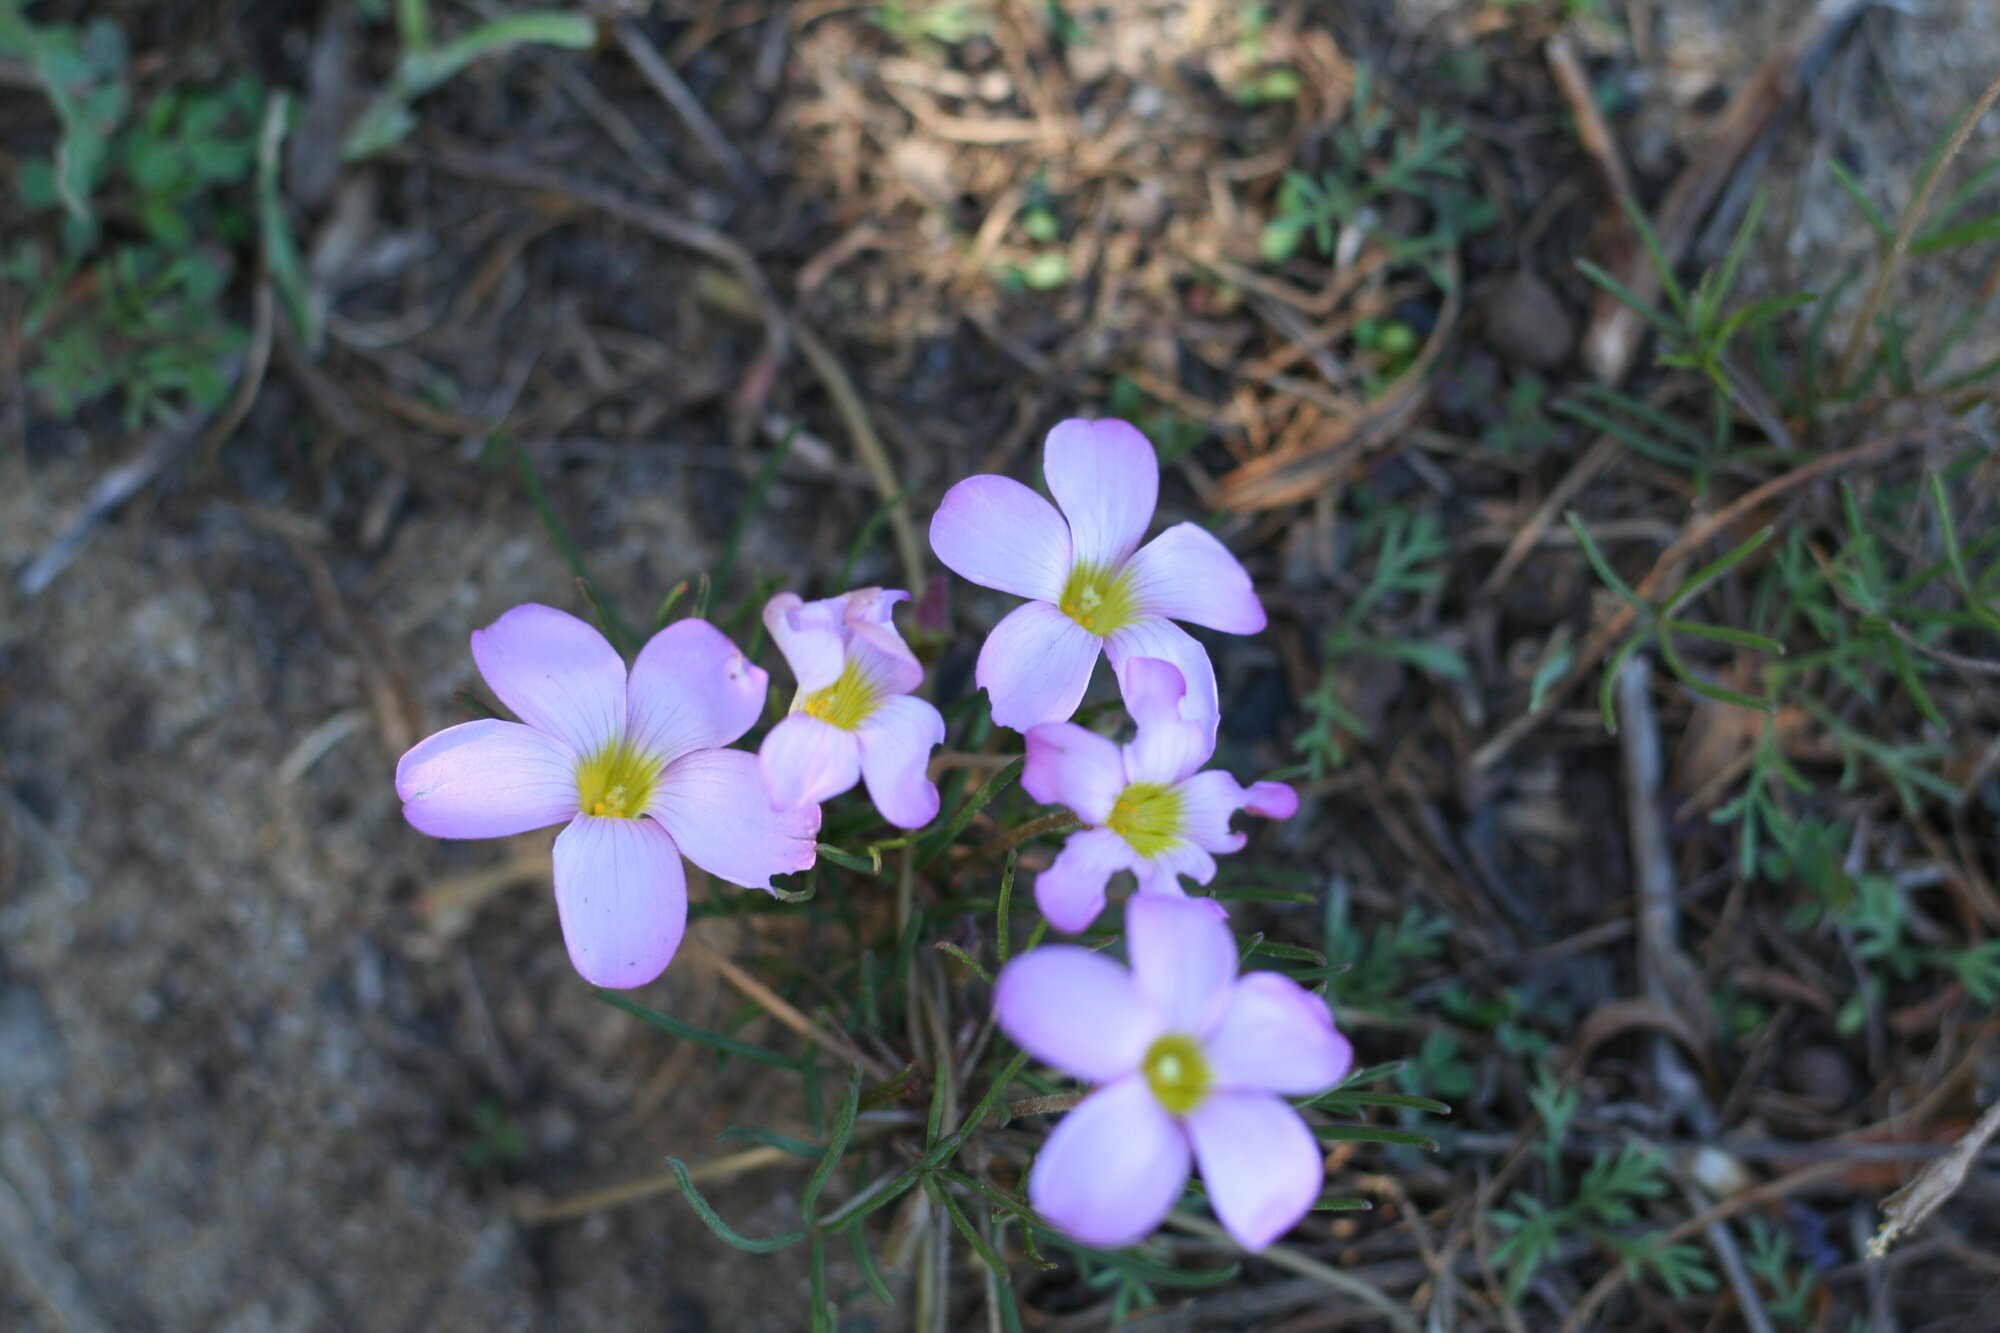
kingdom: Plantae
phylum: Tracheophyta
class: Magnoliopsida
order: Oxalidales
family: Oxalidaceae
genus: Oxalis
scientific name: Oxalis polyphylla
